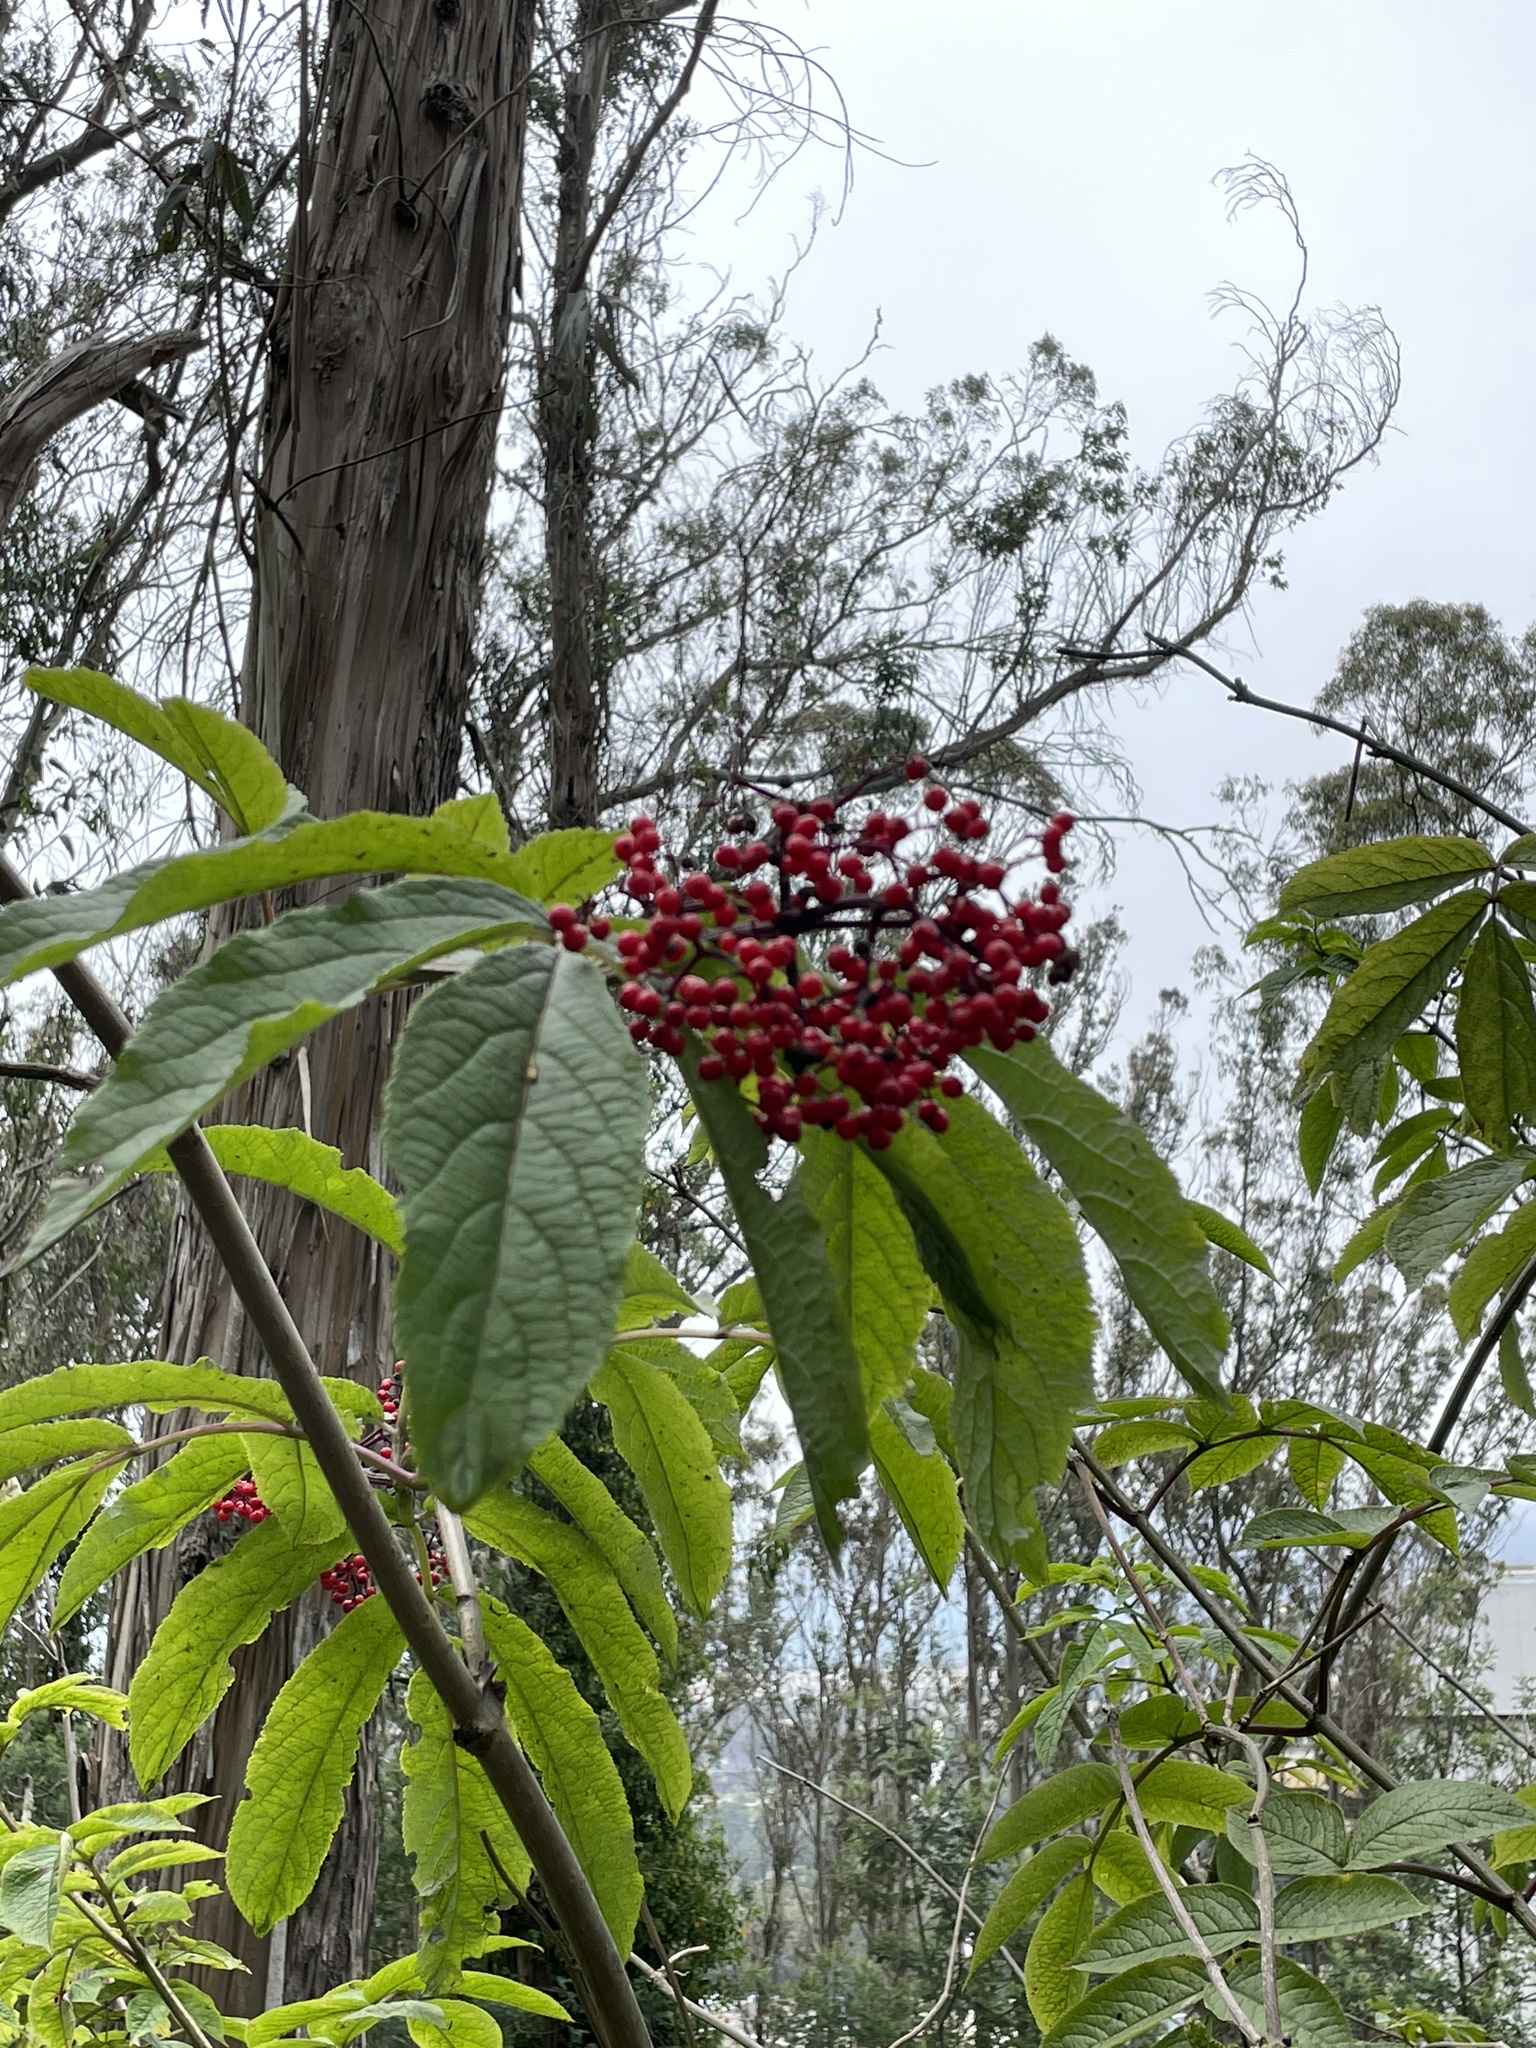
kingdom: Plantae
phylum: Tracheophyta
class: Magnoliopsida
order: Dipsacales
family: Viburnaceae
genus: Sambucus
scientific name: Sambucus racemosa
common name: Red-berried elder
